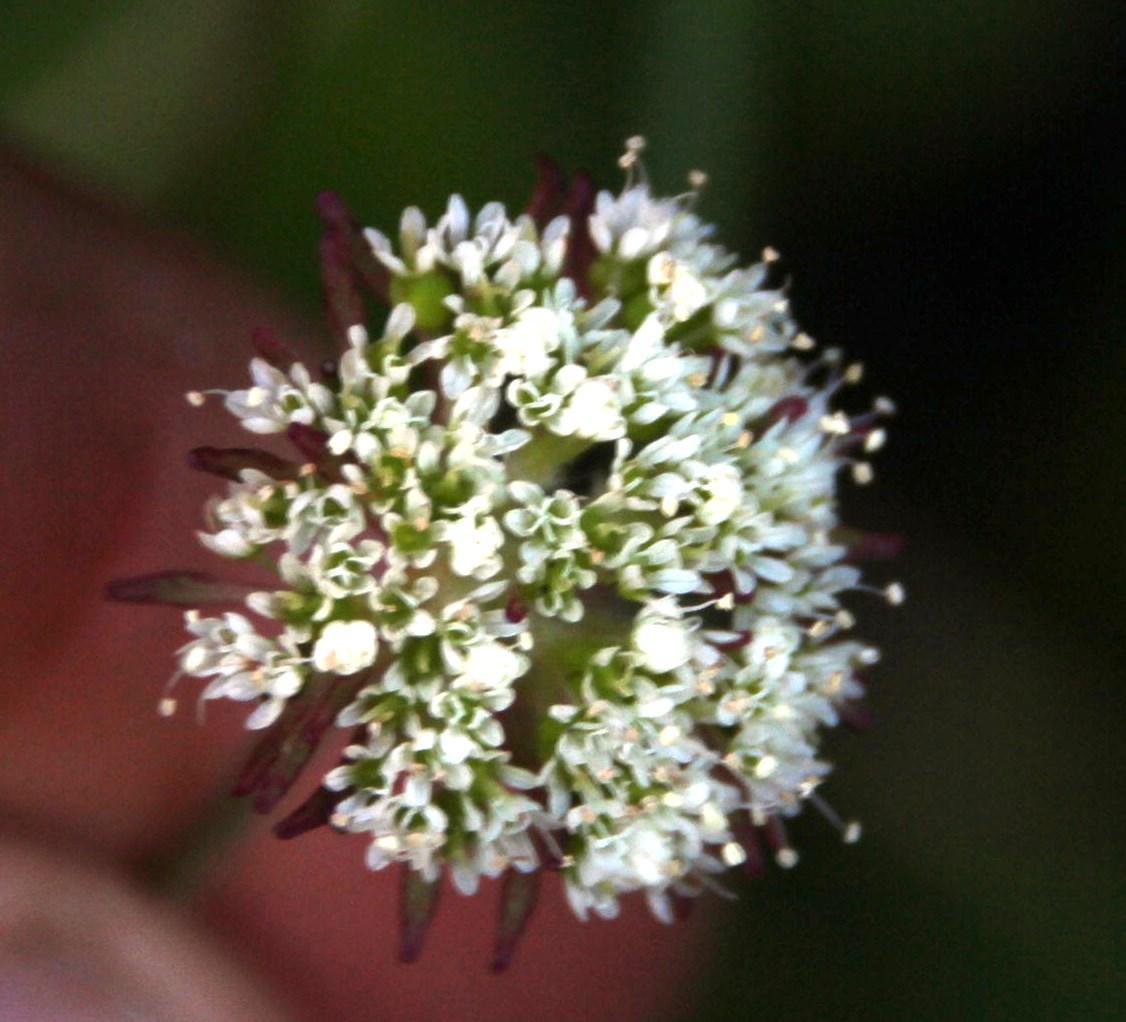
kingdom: Plantae
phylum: Tracheophyta
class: Magnoliopsida
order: Apiales
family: Apiaceae
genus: Hermas
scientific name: Hermas capitata
